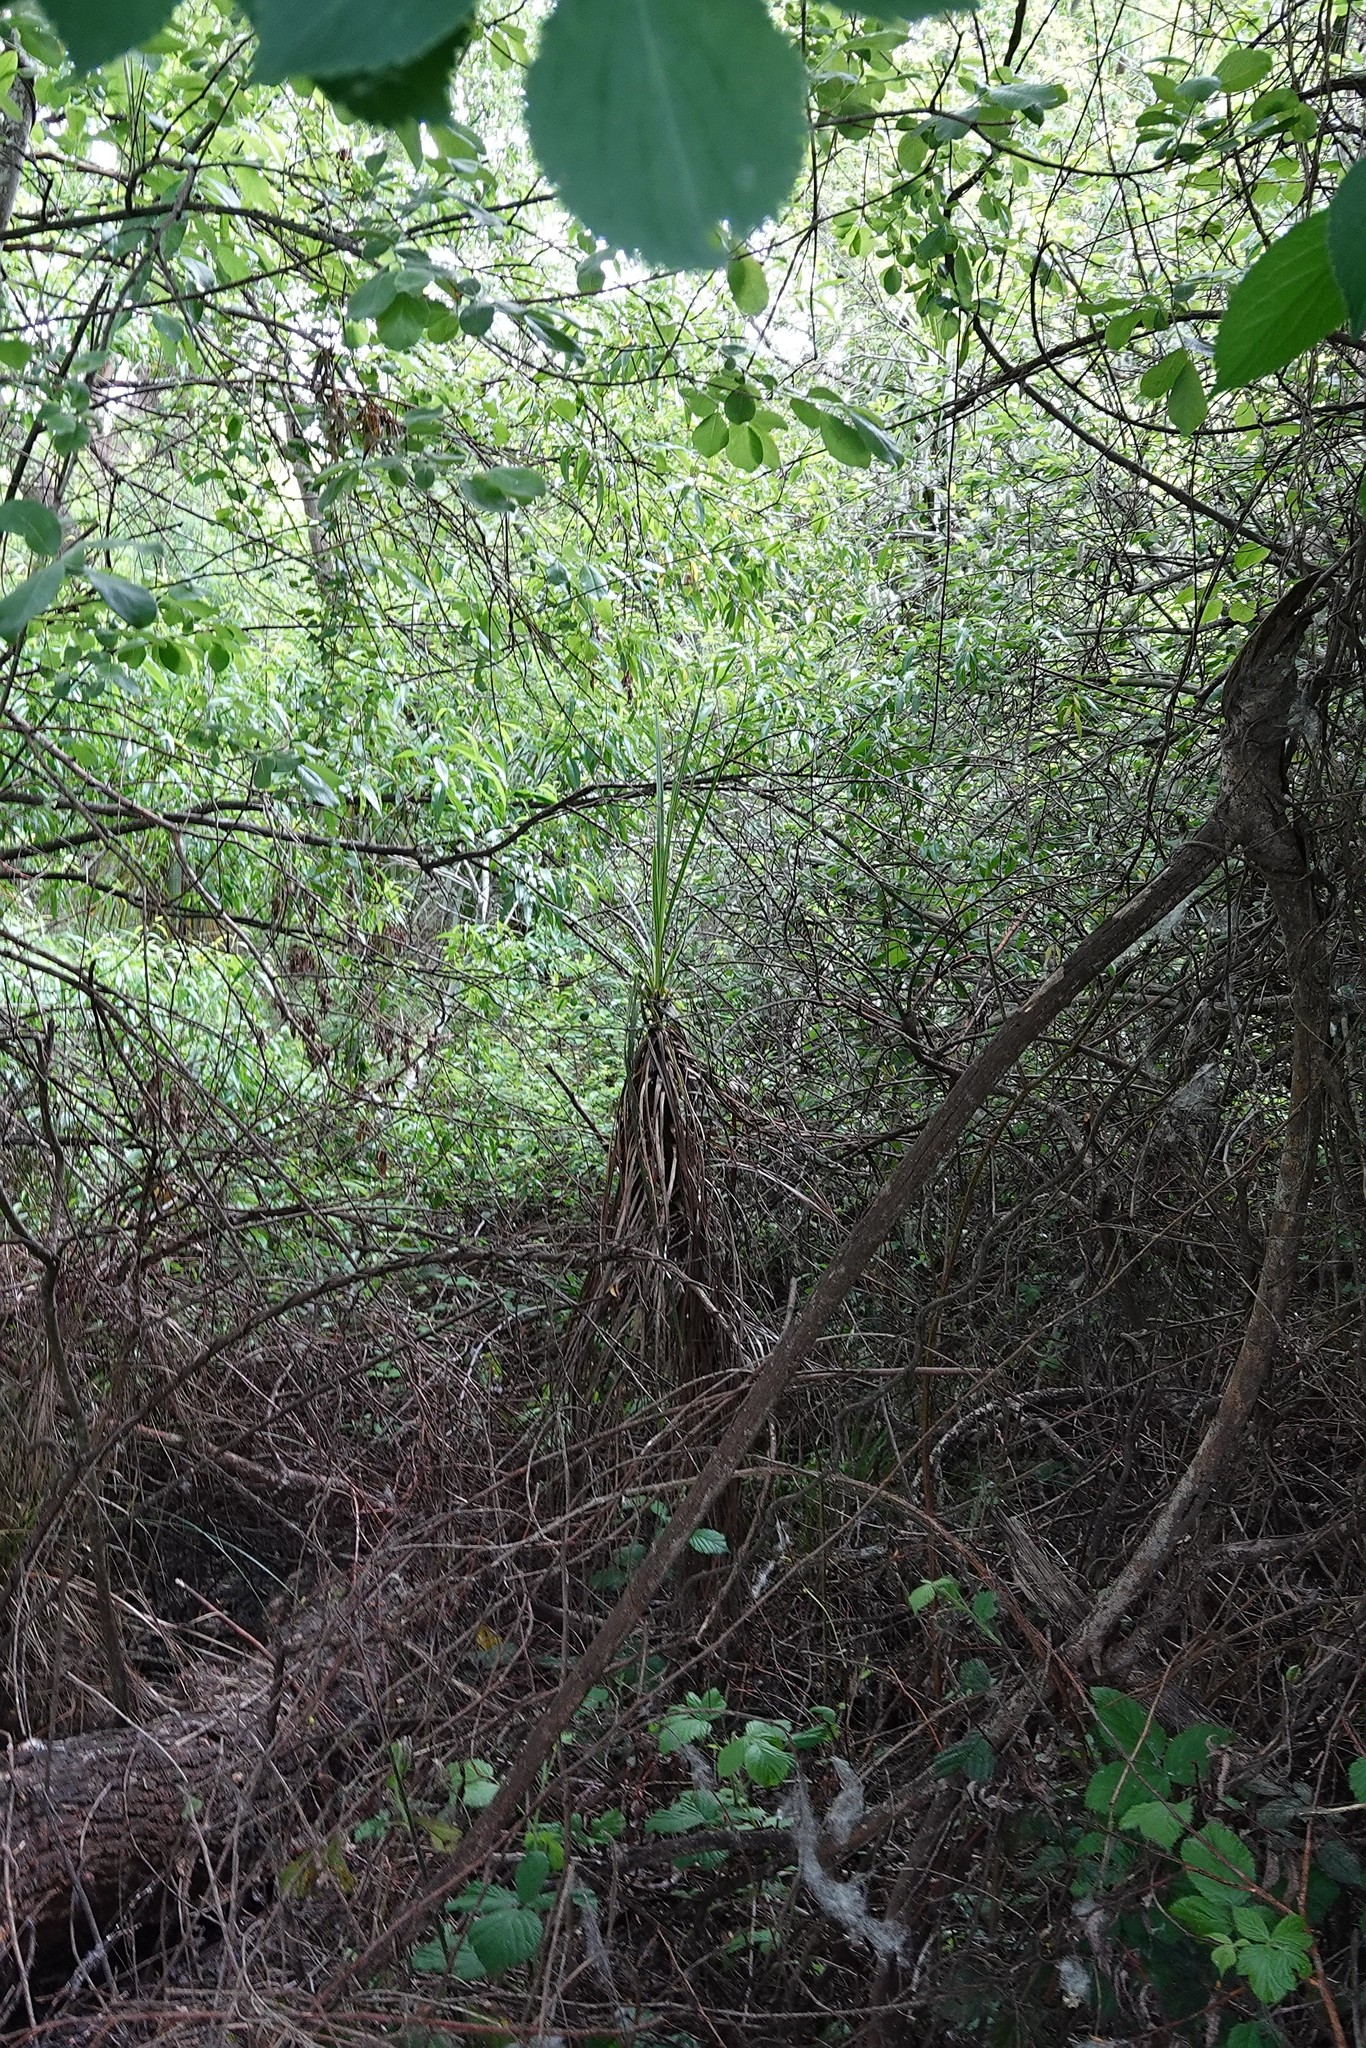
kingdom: Plantae
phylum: Tracheophyta
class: Liliopsida
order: Asparagales
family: Asparagaceae
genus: Cordyline
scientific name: Cordyline australis
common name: Cabbage-palm
